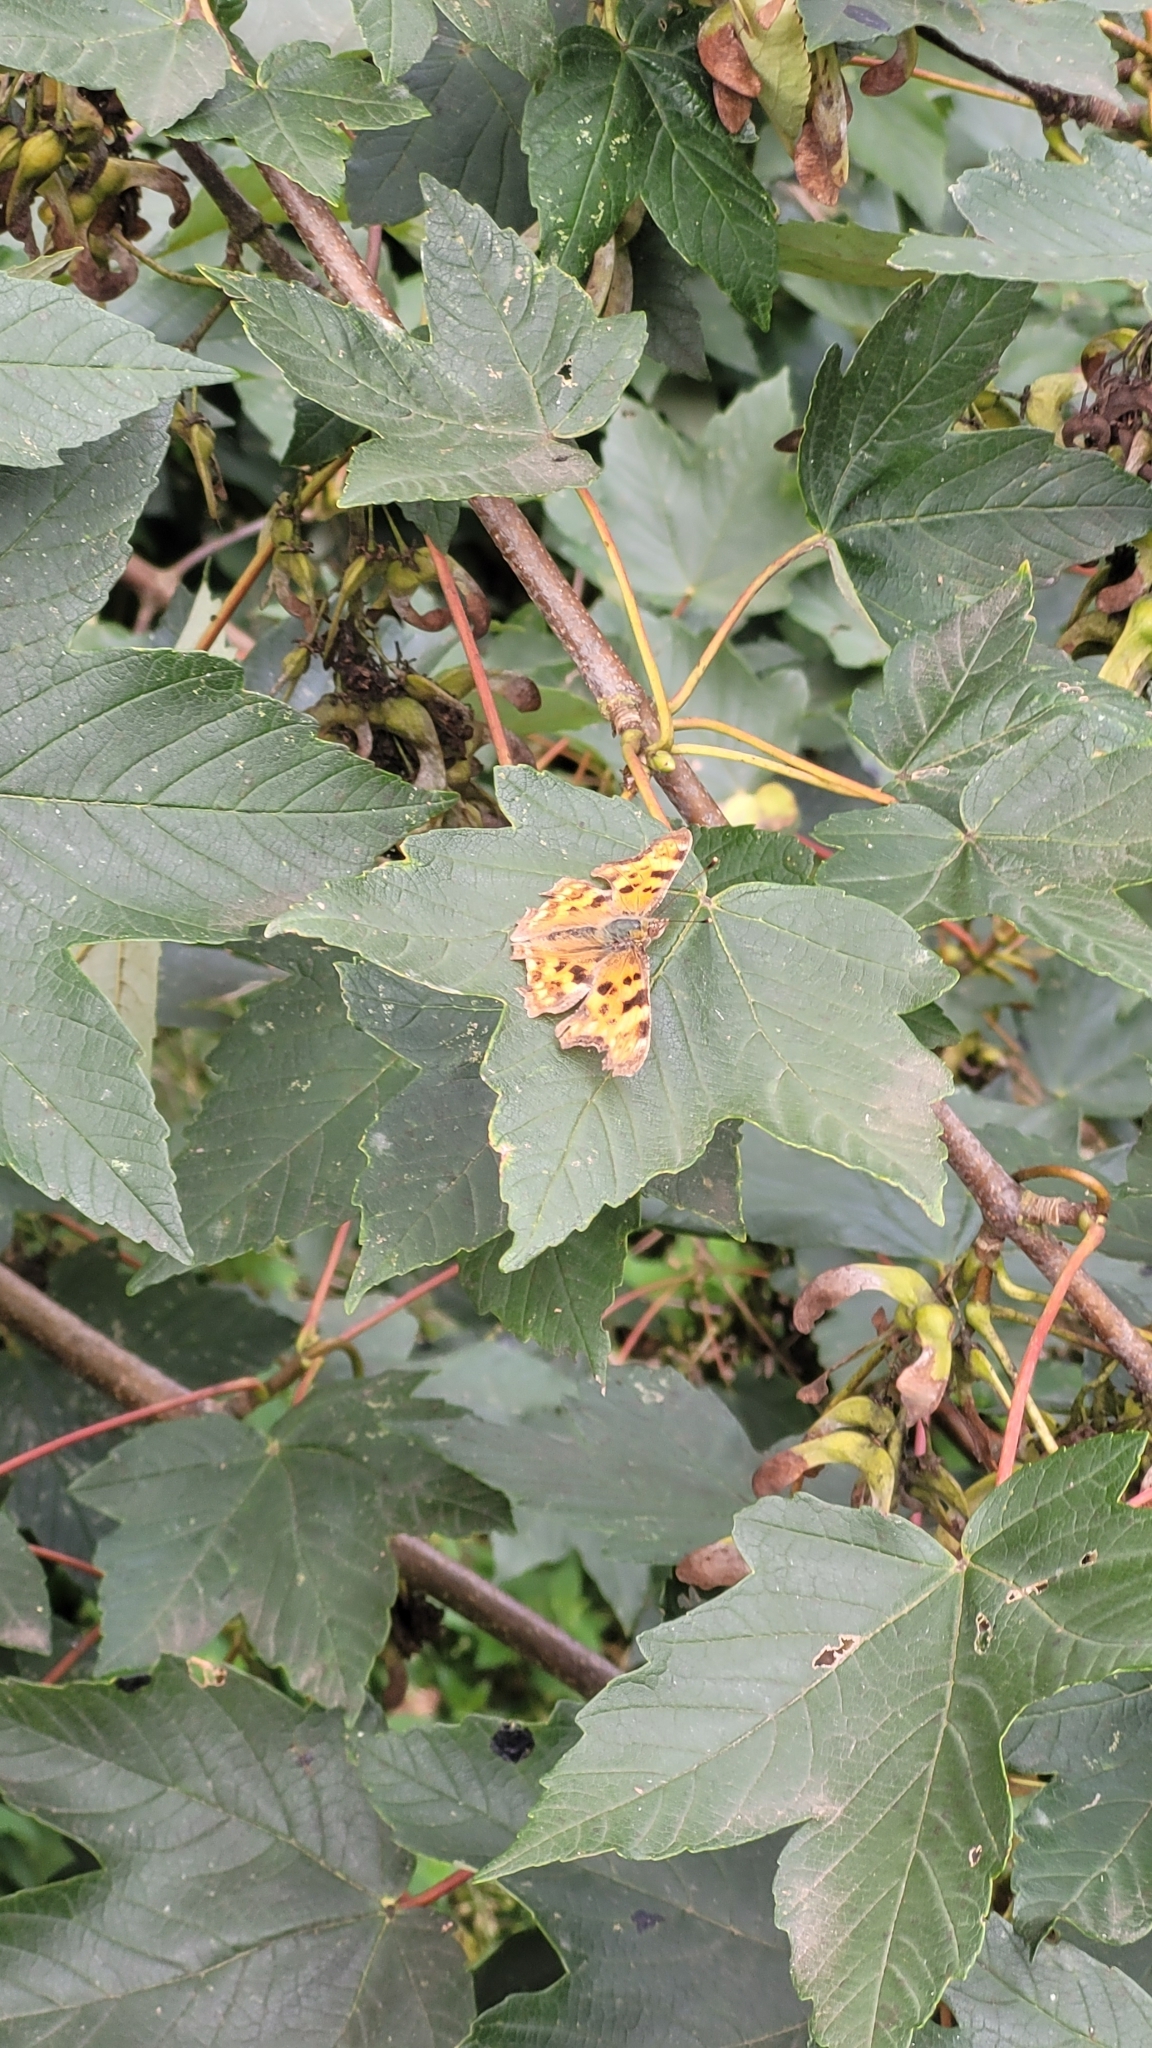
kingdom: Animalia
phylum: Arthropoda
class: Insecta
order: Lepidoptera
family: Nymphalidae
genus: Polygonia
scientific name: Polygonia c-album
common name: Comma
